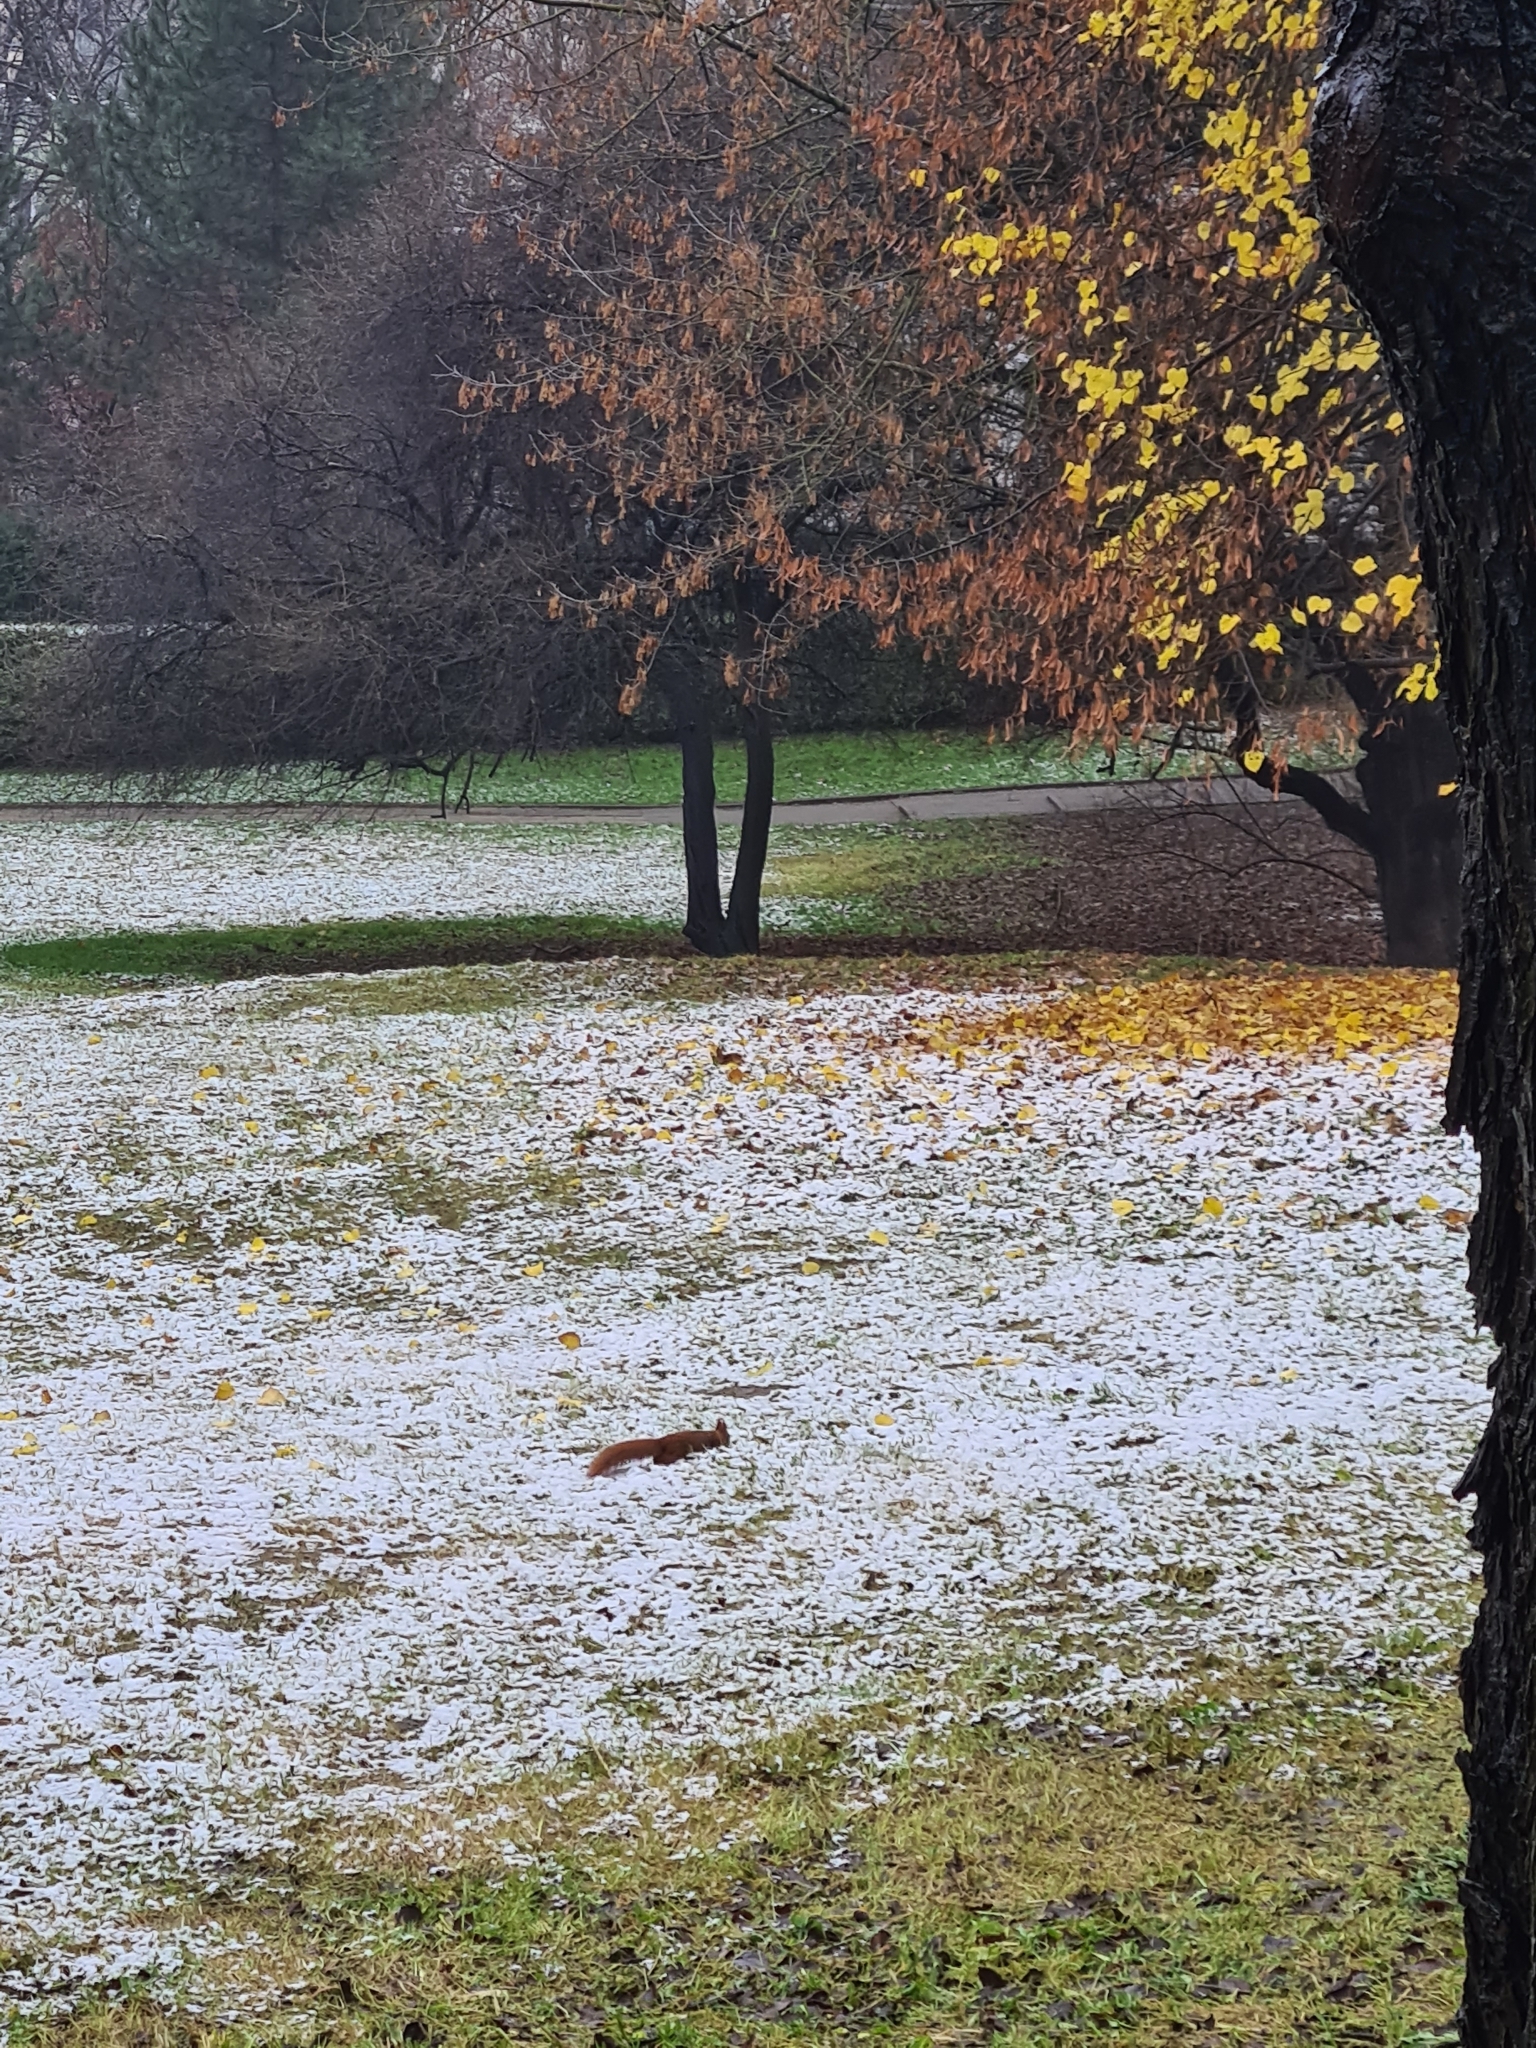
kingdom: Animalia
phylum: Chordata
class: Mammalia
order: Rodentia
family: Sciuridae
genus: Sciurus
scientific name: Sciurus vulgaris
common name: Eurasian red squirrel
